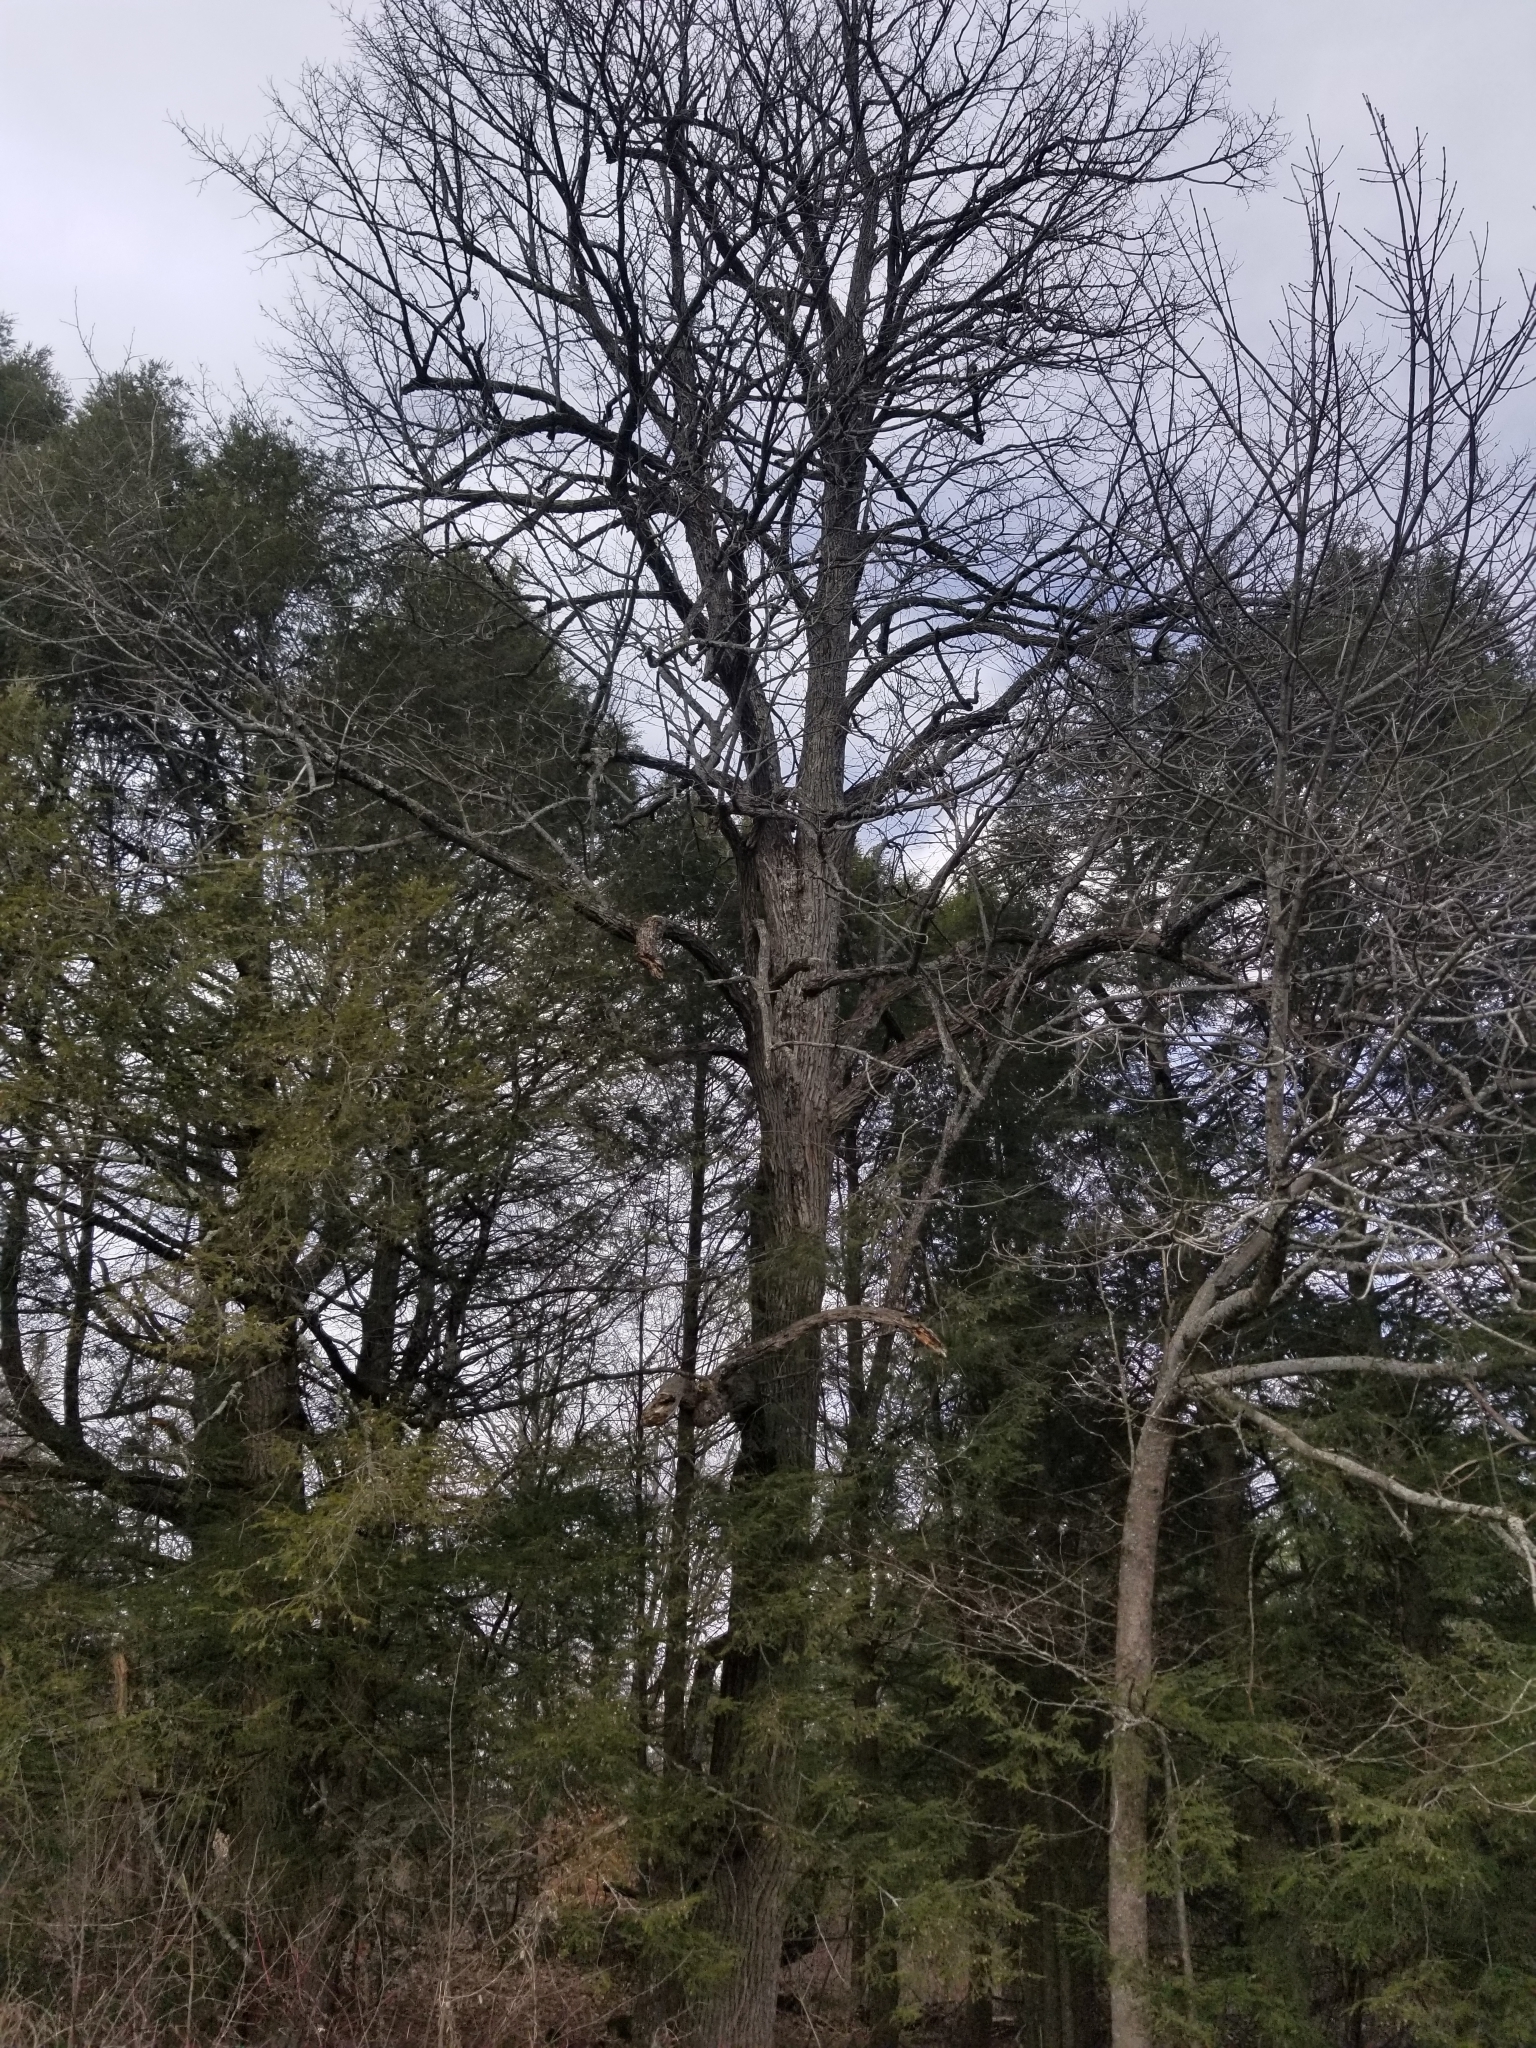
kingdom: Plantae
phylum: Tracheophyta
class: Magnoliopsida
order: Malvales
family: Malvaceae
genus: Tilia
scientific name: Tilia americana
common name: Basswood
